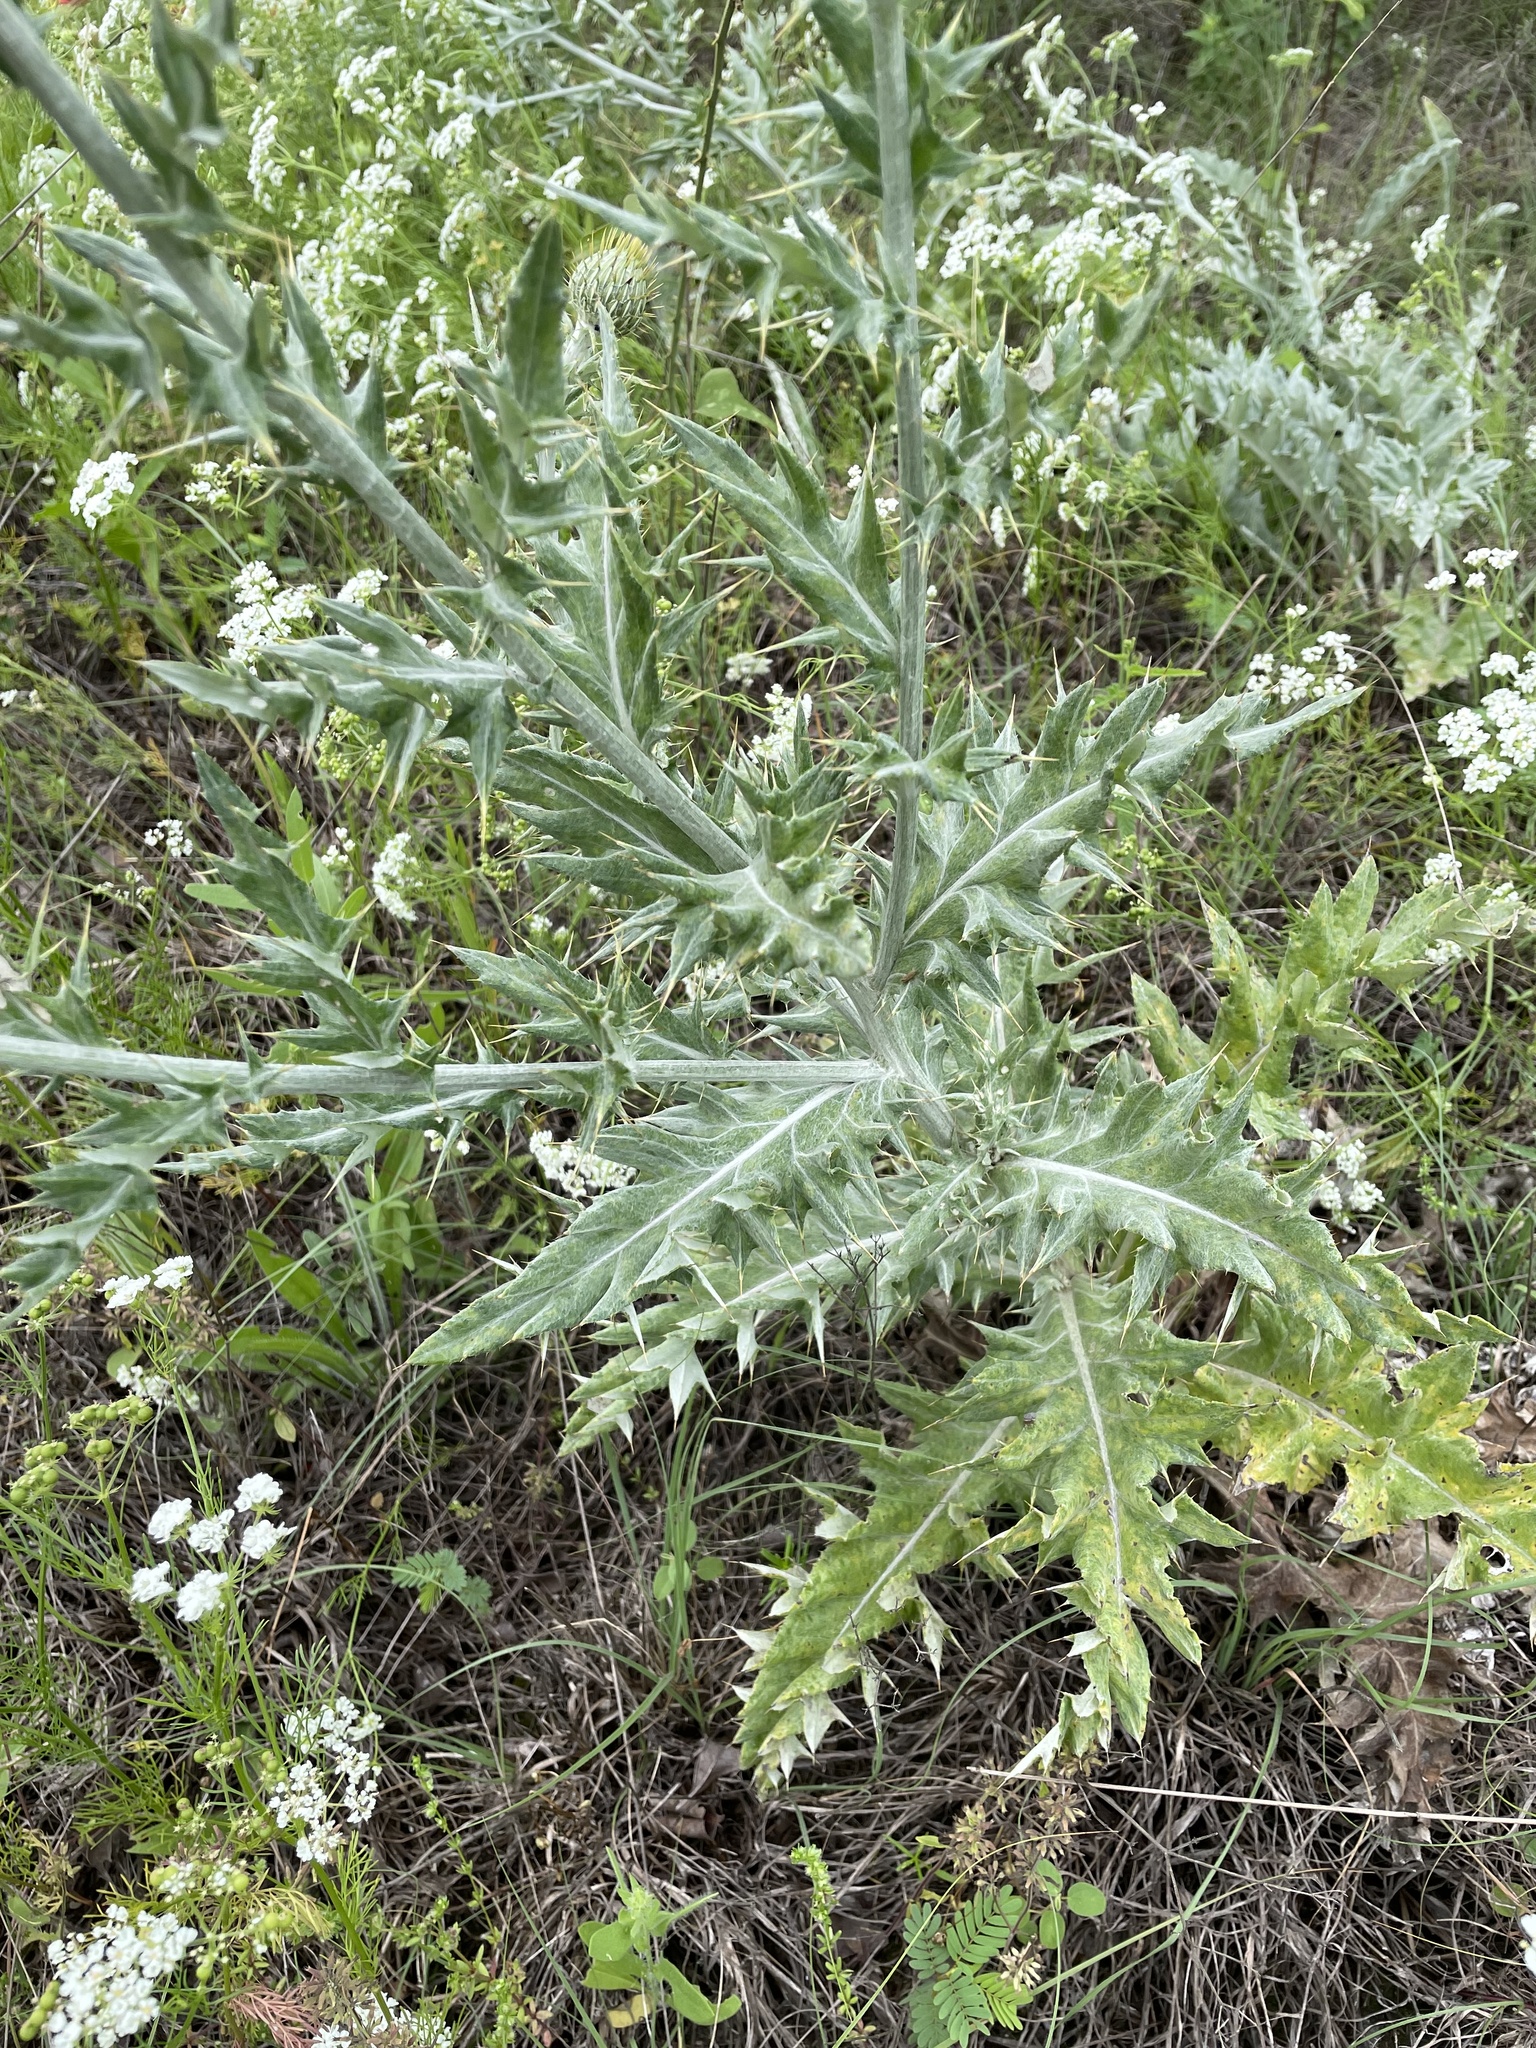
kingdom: Plantae
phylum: Tracheophyta
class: Magnoliopsida
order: Asterales
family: Asteraceae
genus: Cirsium
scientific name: Cirsium undulatum
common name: Pasture thistle
